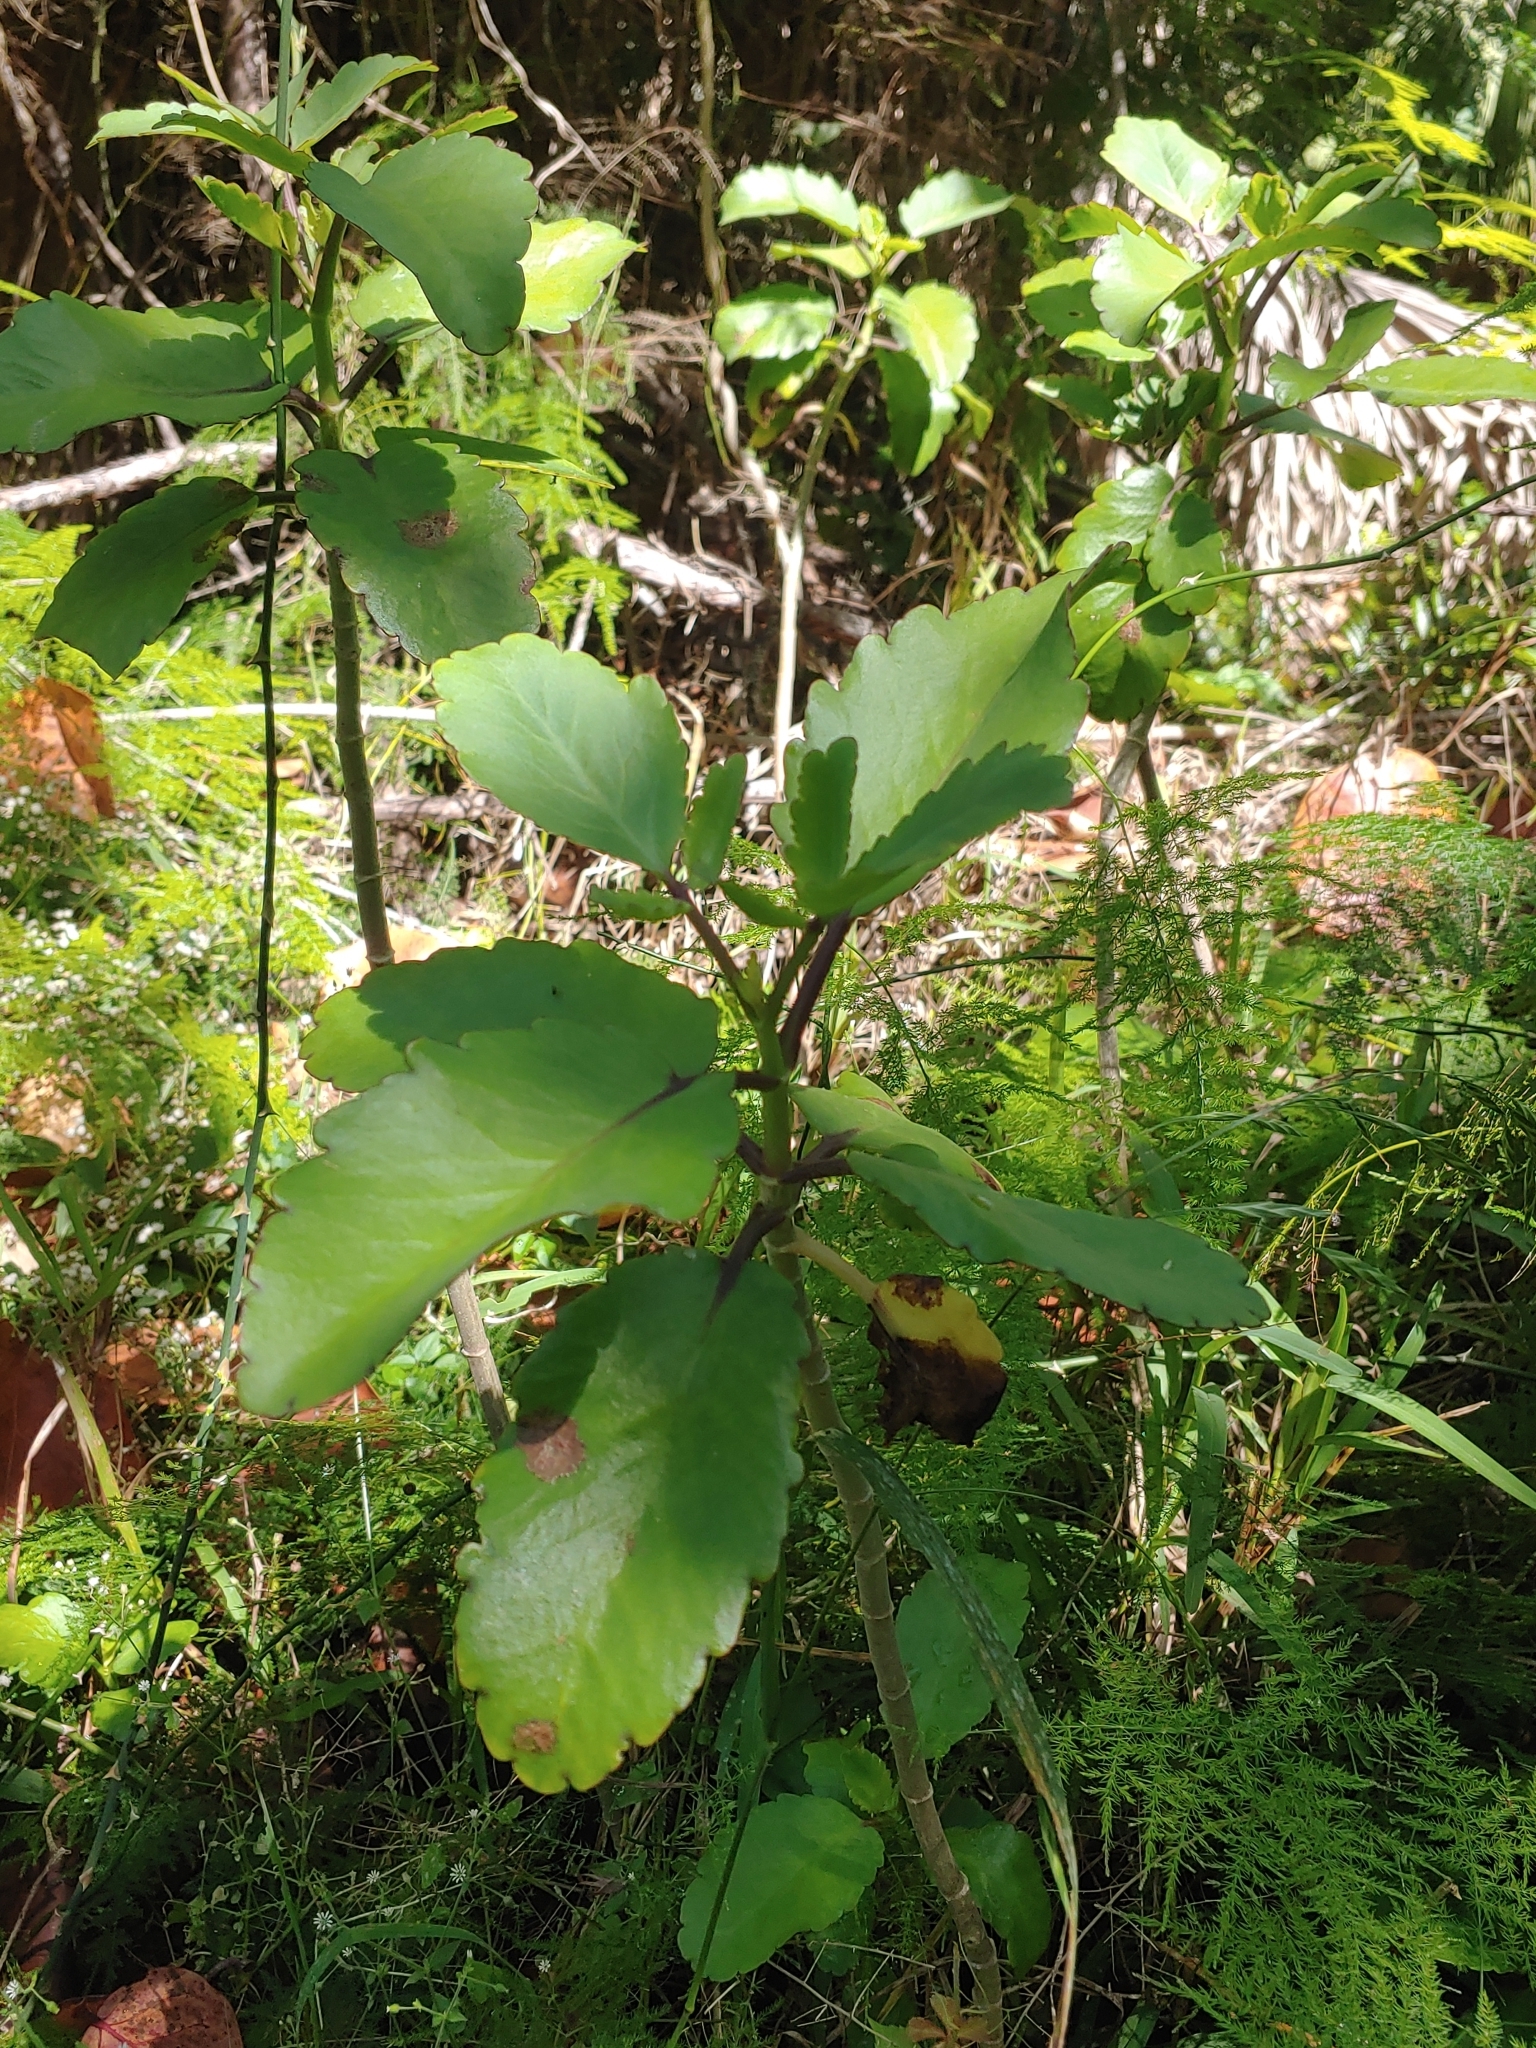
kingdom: Plantae
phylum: Tracheophyta
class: Magnoliopsida
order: Saxifragales
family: Crassulaceae
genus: Kalanchoe
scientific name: Kalanchoe pinnata
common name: Cathedral bells
